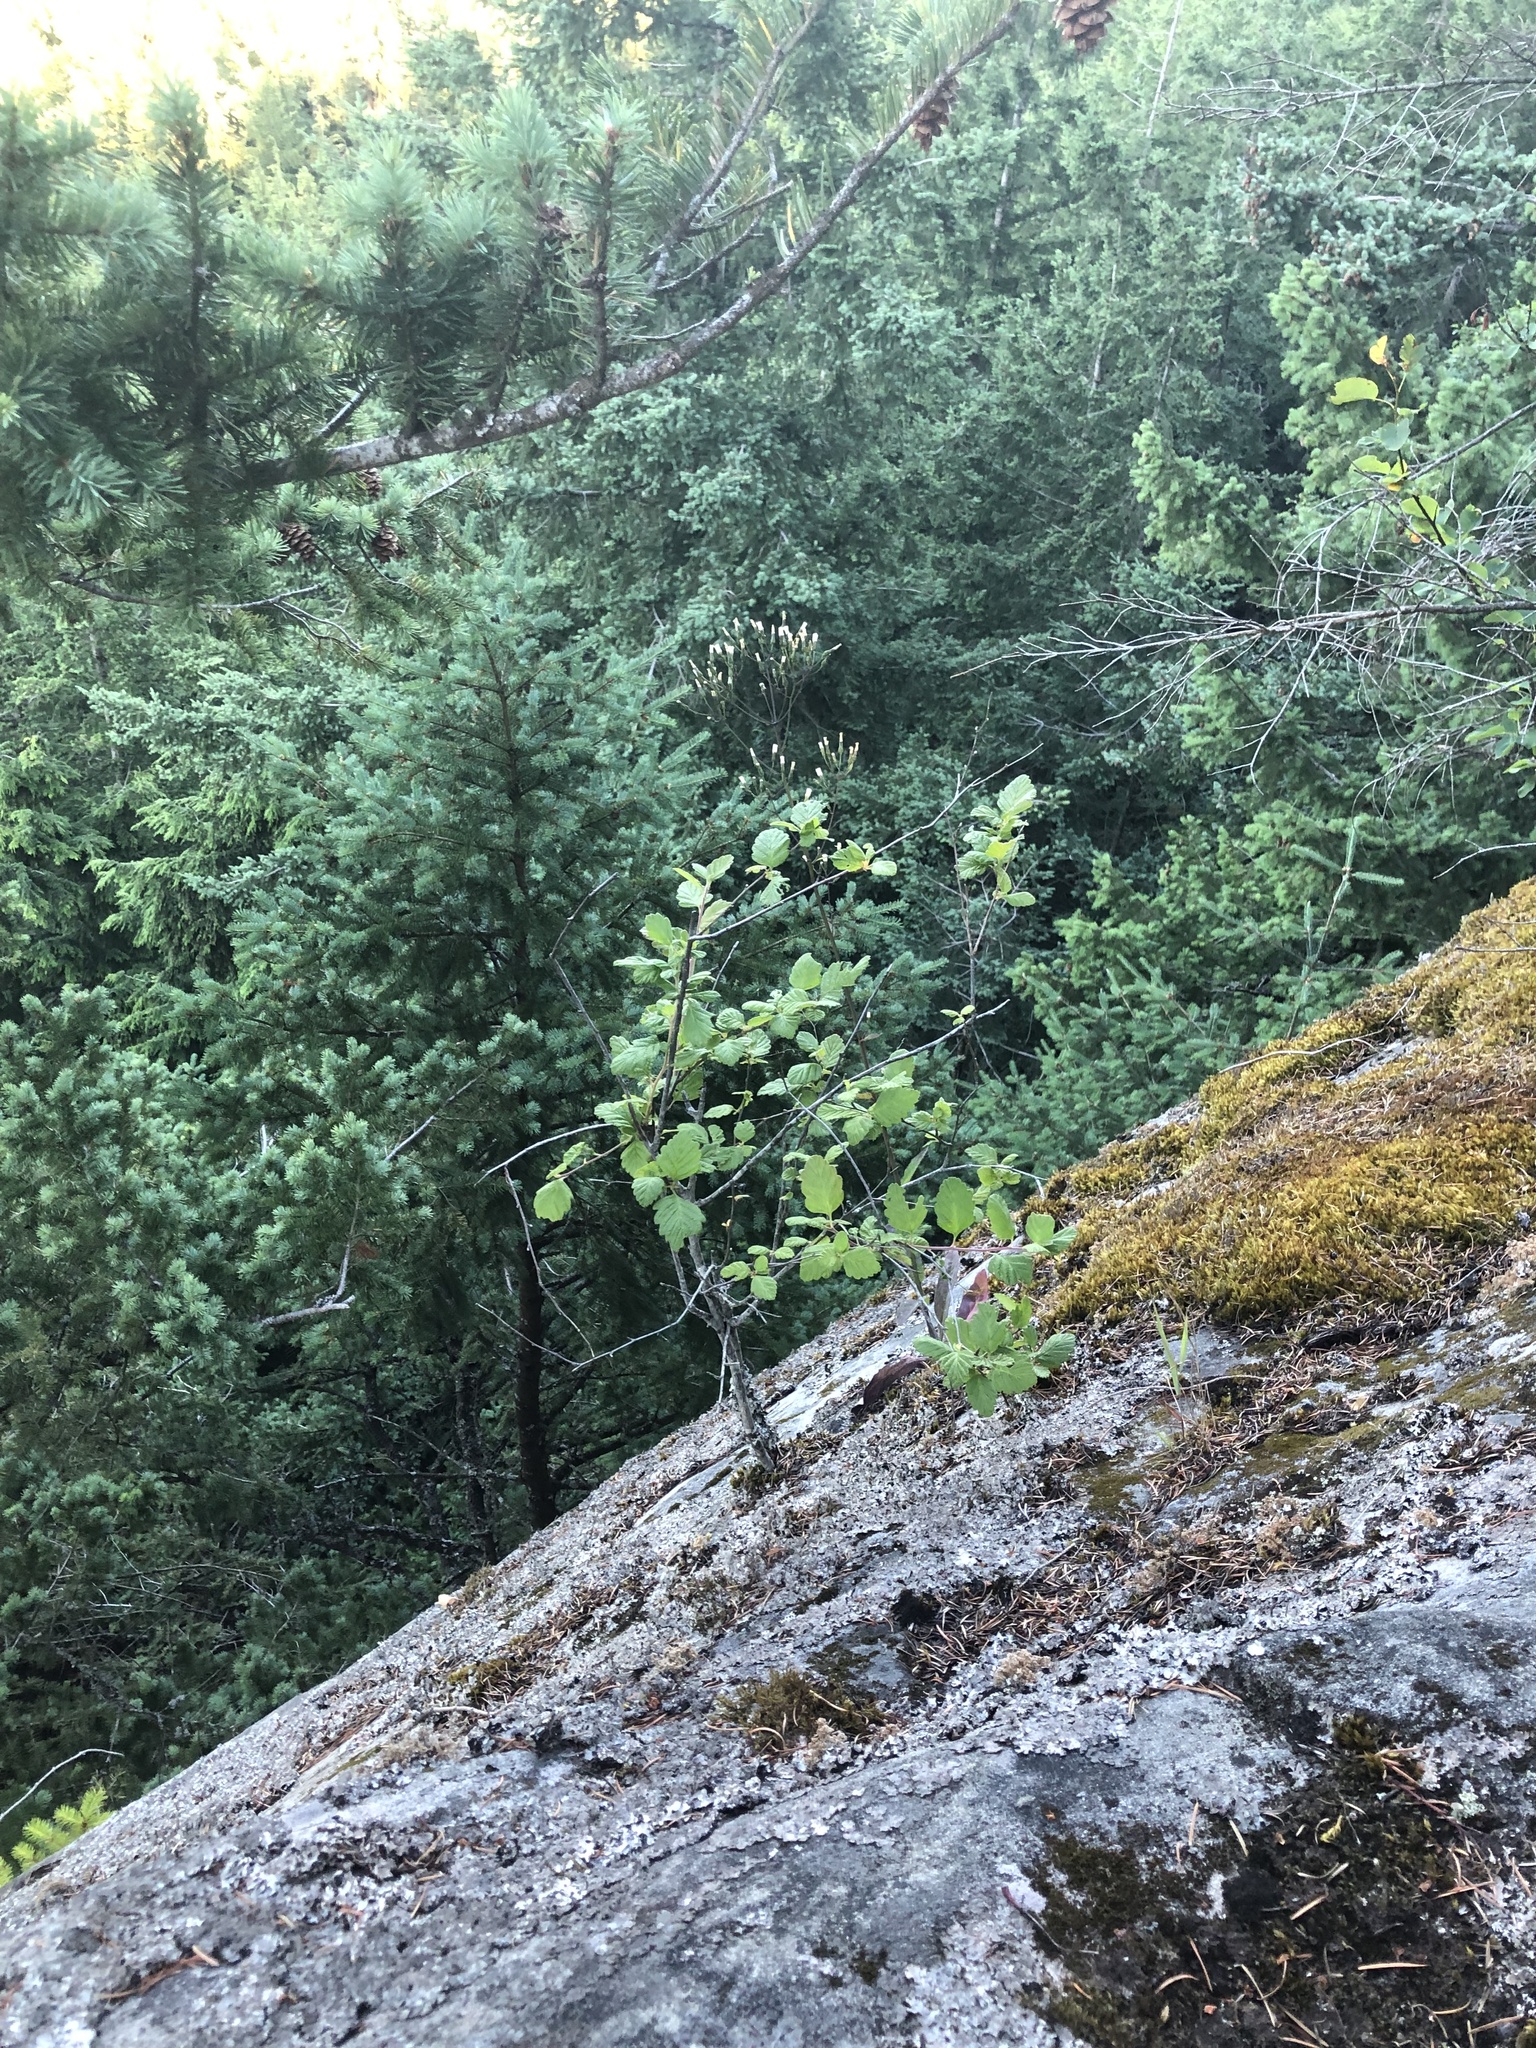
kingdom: Plantae
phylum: Tracheophyta
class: Magnoliopsida
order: Rosales
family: Rosaceae
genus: Holodiscus
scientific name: Holodiscus discolor
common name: Oceanspray
